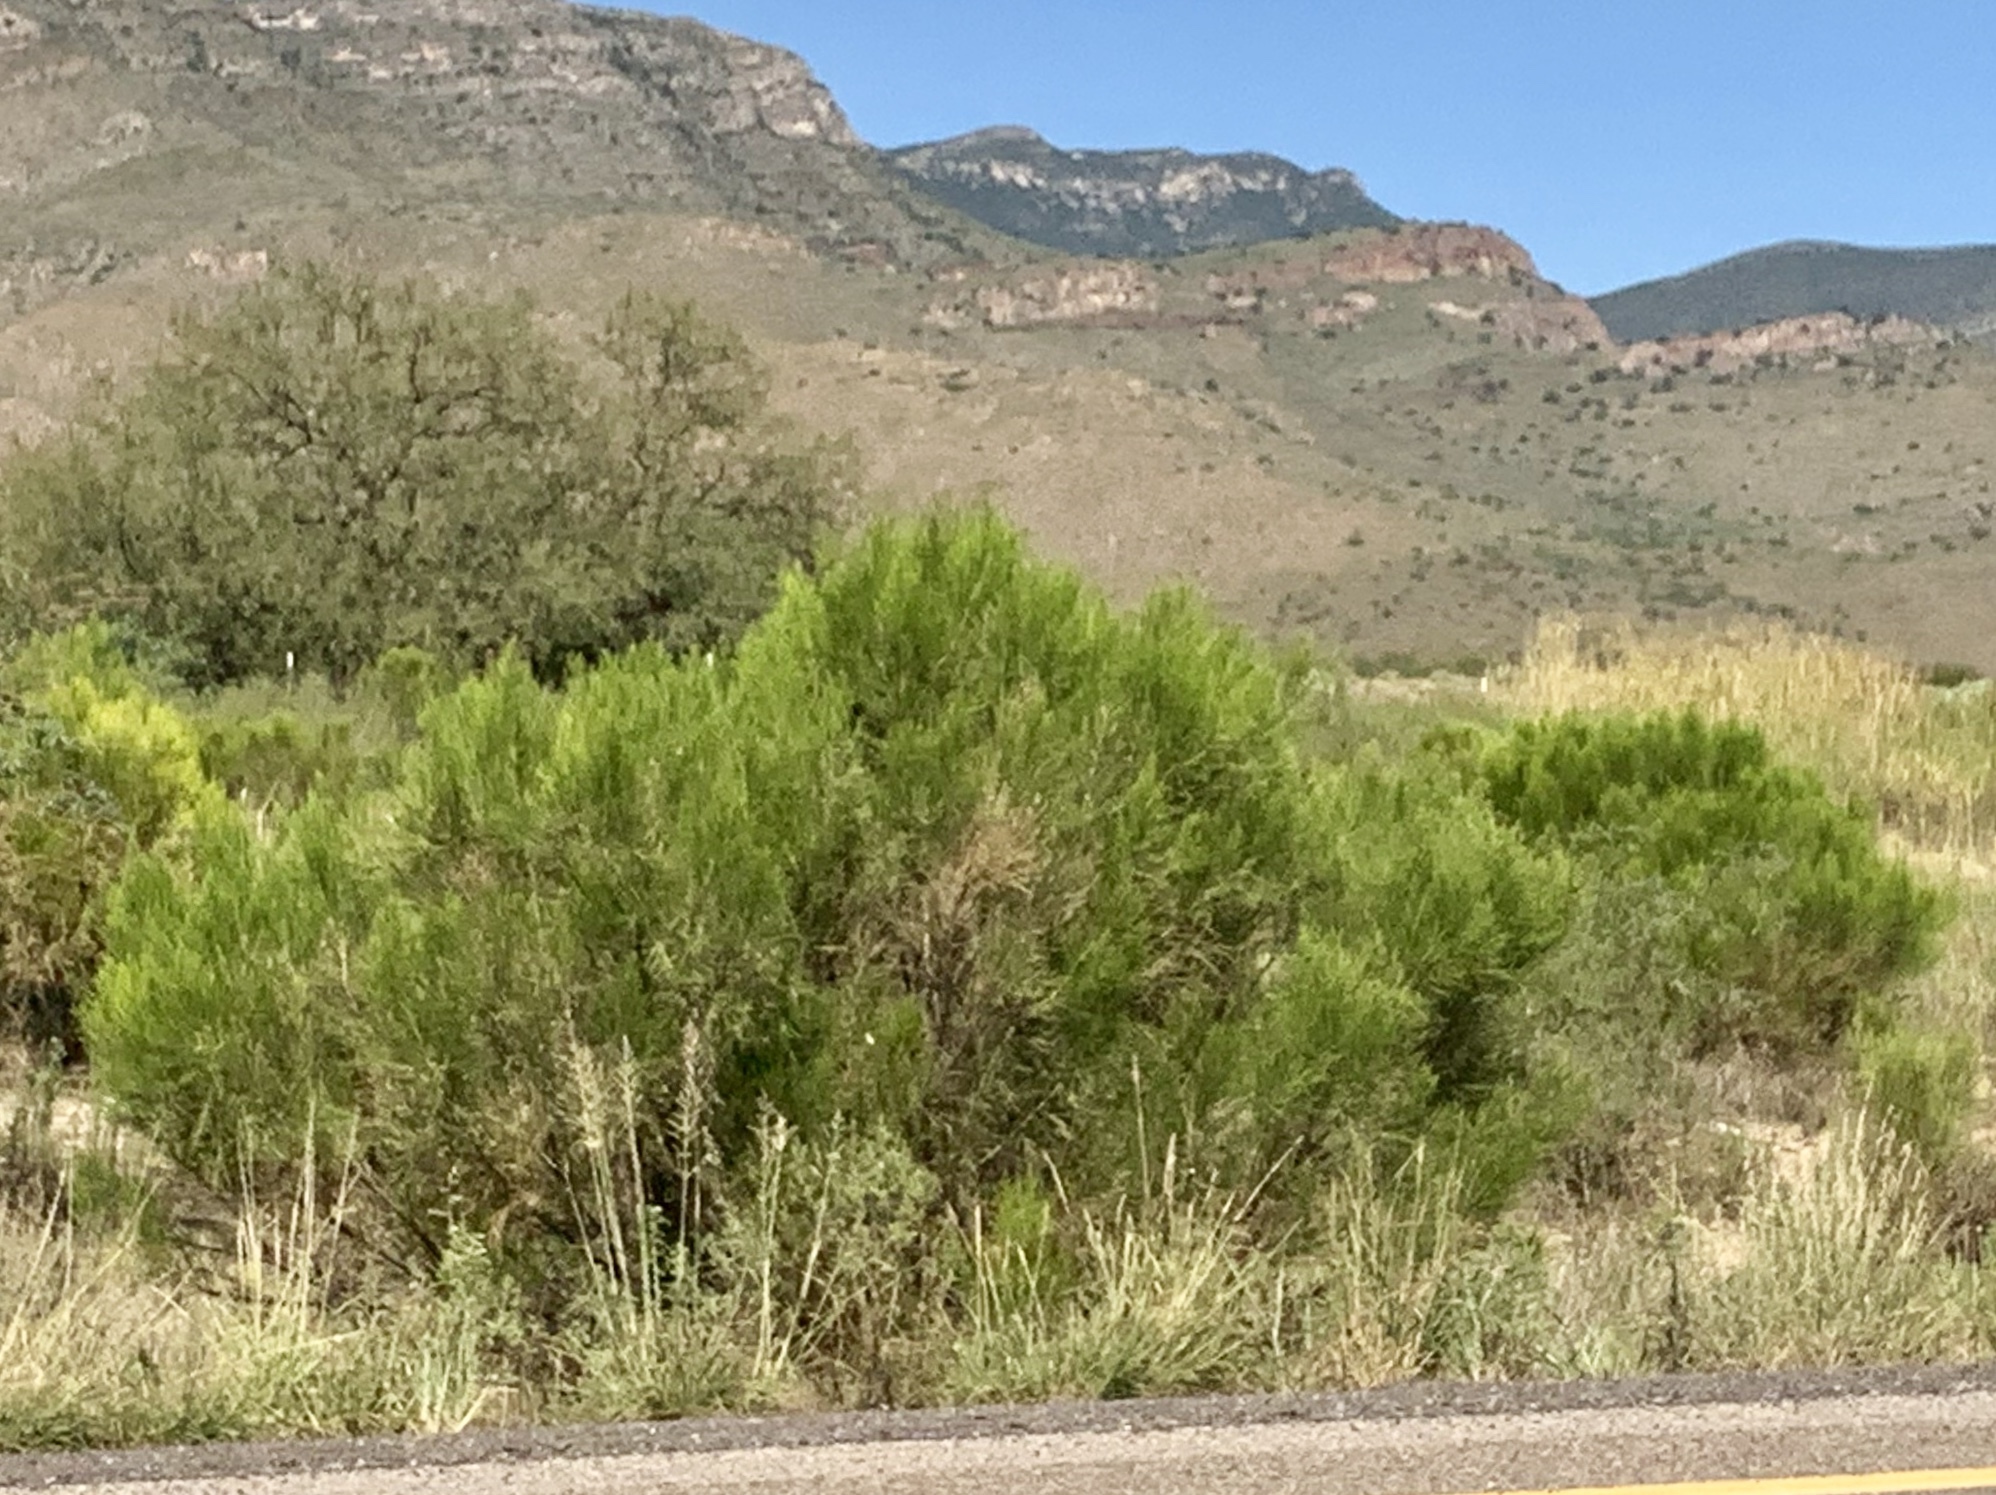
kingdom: Plantae
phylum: Tracheophyta
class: Magnoliopsida
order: Asterales
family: Asteraceae
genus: Baccharis
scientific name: Baccharis sarothroides
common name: Desert-broom
